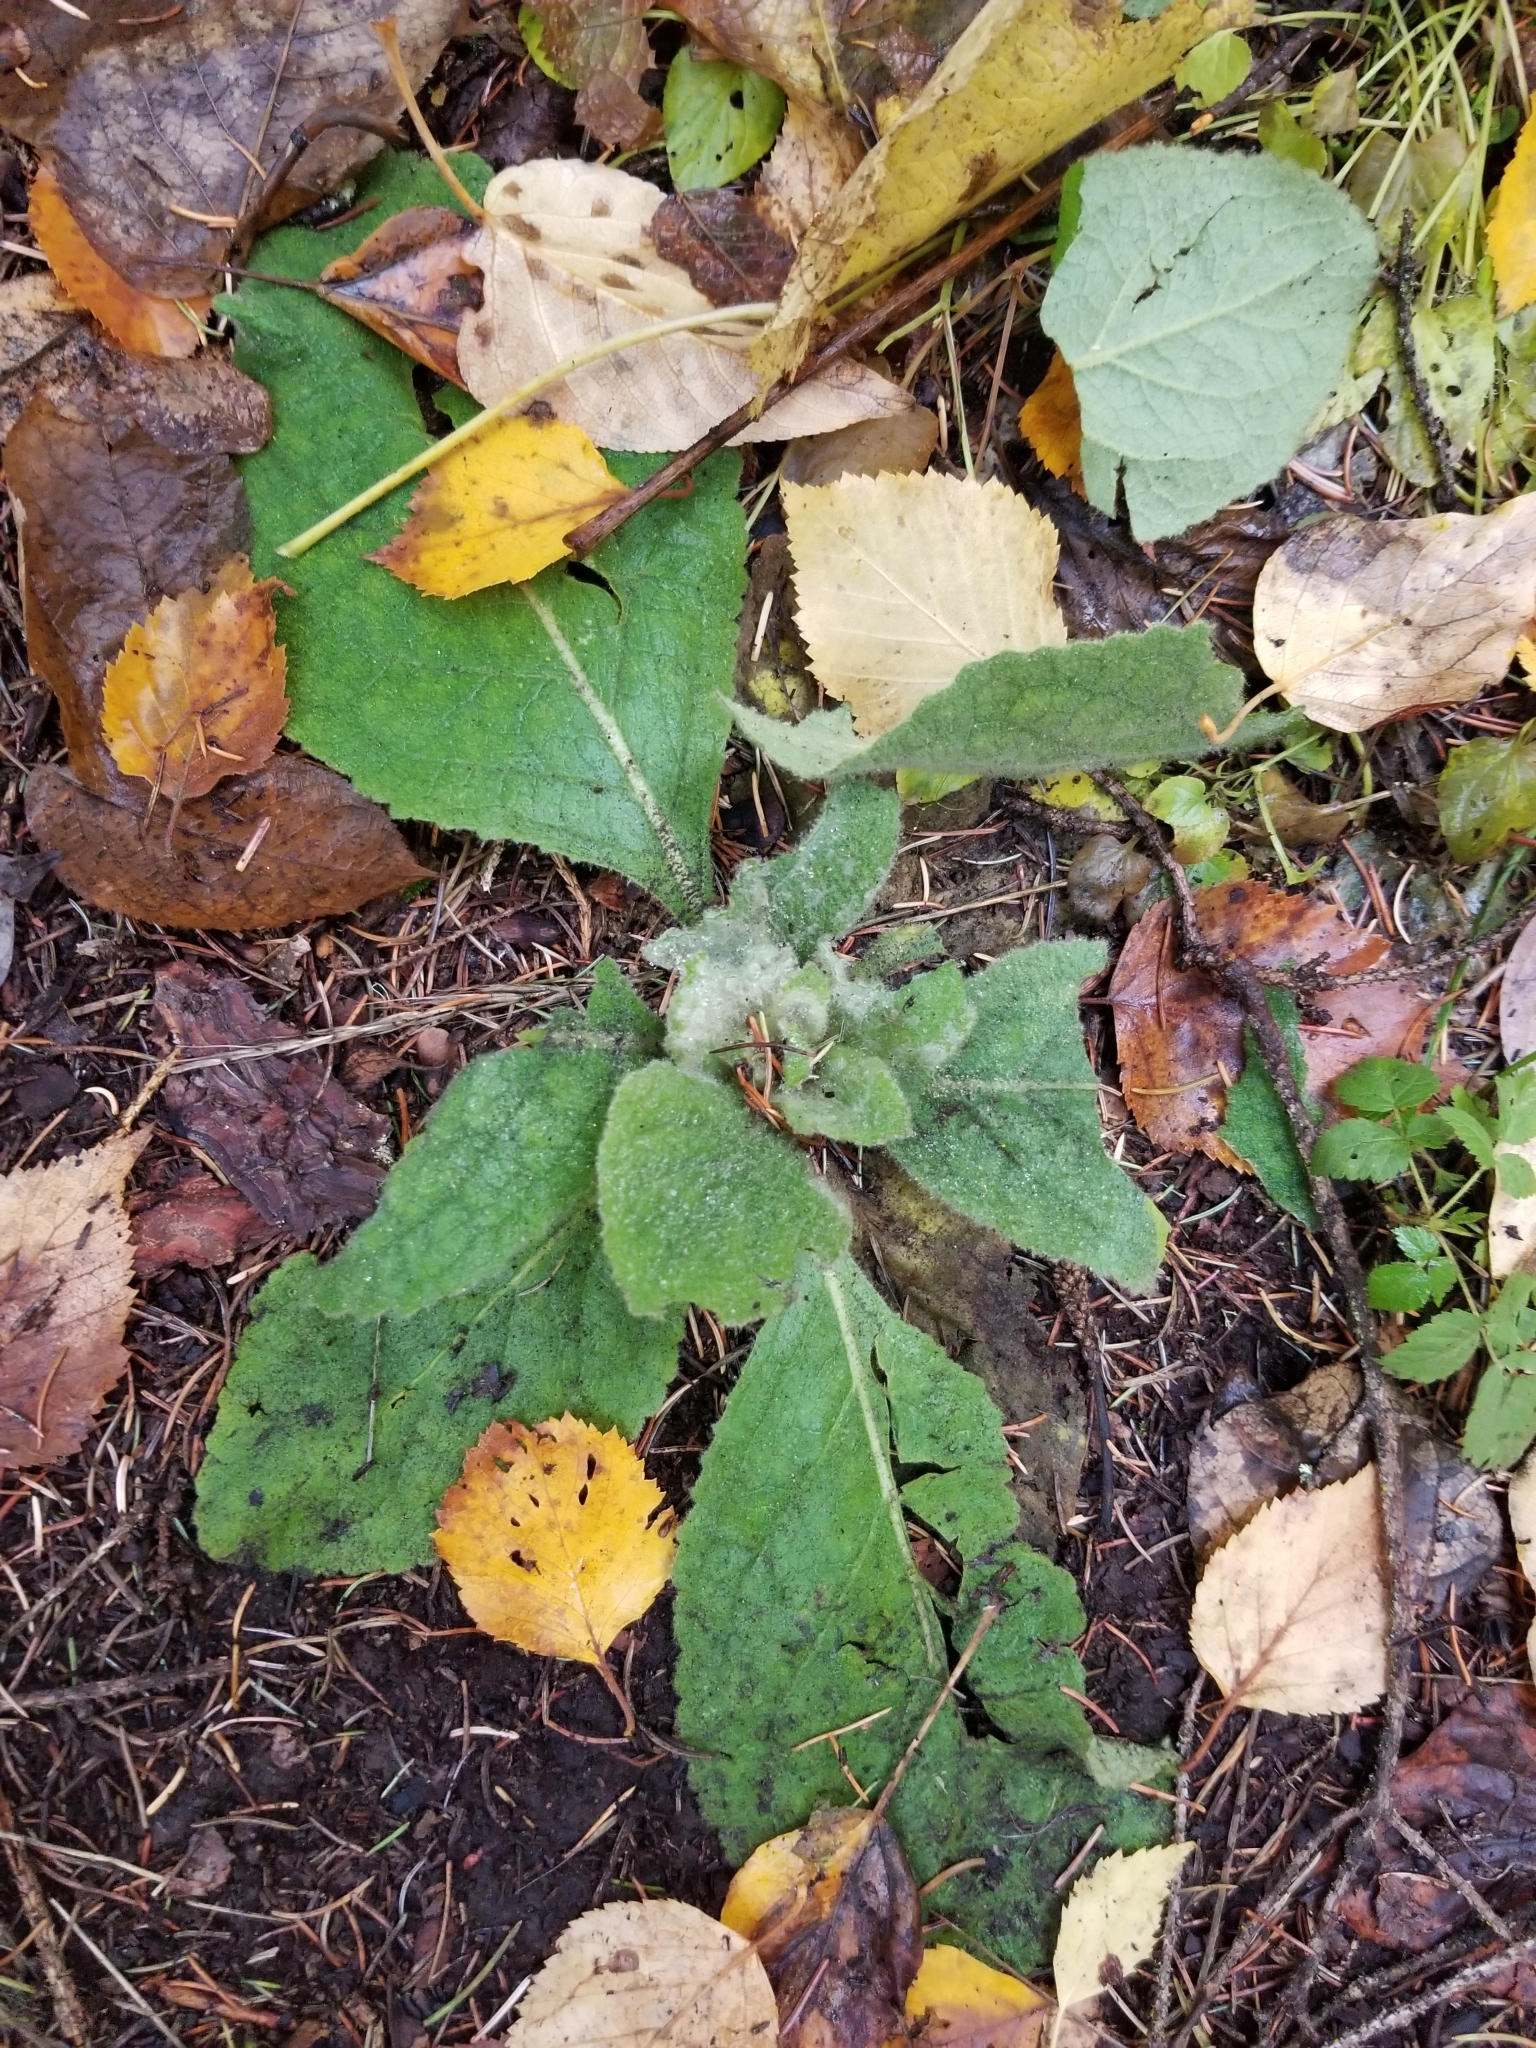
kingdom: Plantae
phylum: Tracheophyta
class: Magnoliopsida
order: Lamiales
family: Scrophulariaceae
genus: Verbascum
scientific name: Verbascum thapsus
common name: Common mullein
